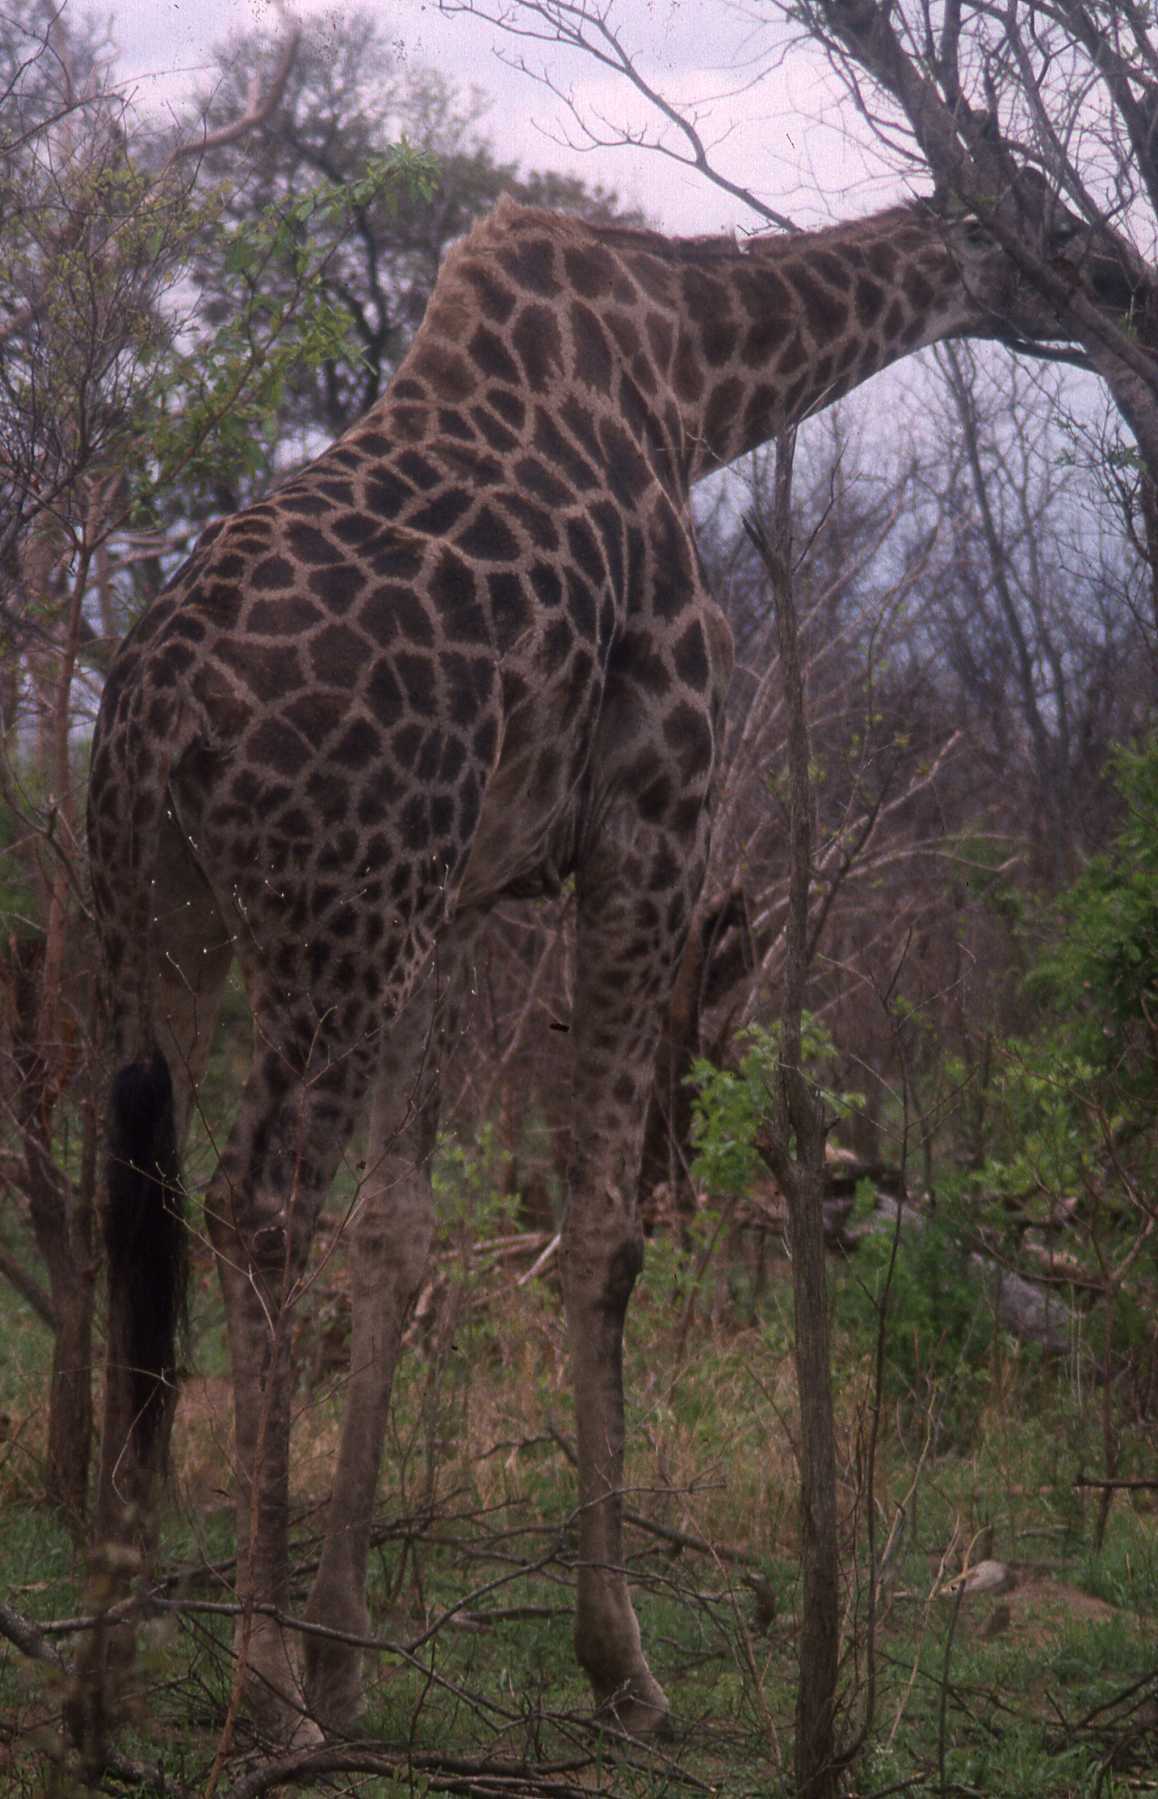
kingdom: Animalia
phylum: Chordata
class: Mammalia
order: Artiodactyla
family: Giraffidae
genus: Giraffa
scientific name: Giraffa giraffa
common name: Southern giraffe
